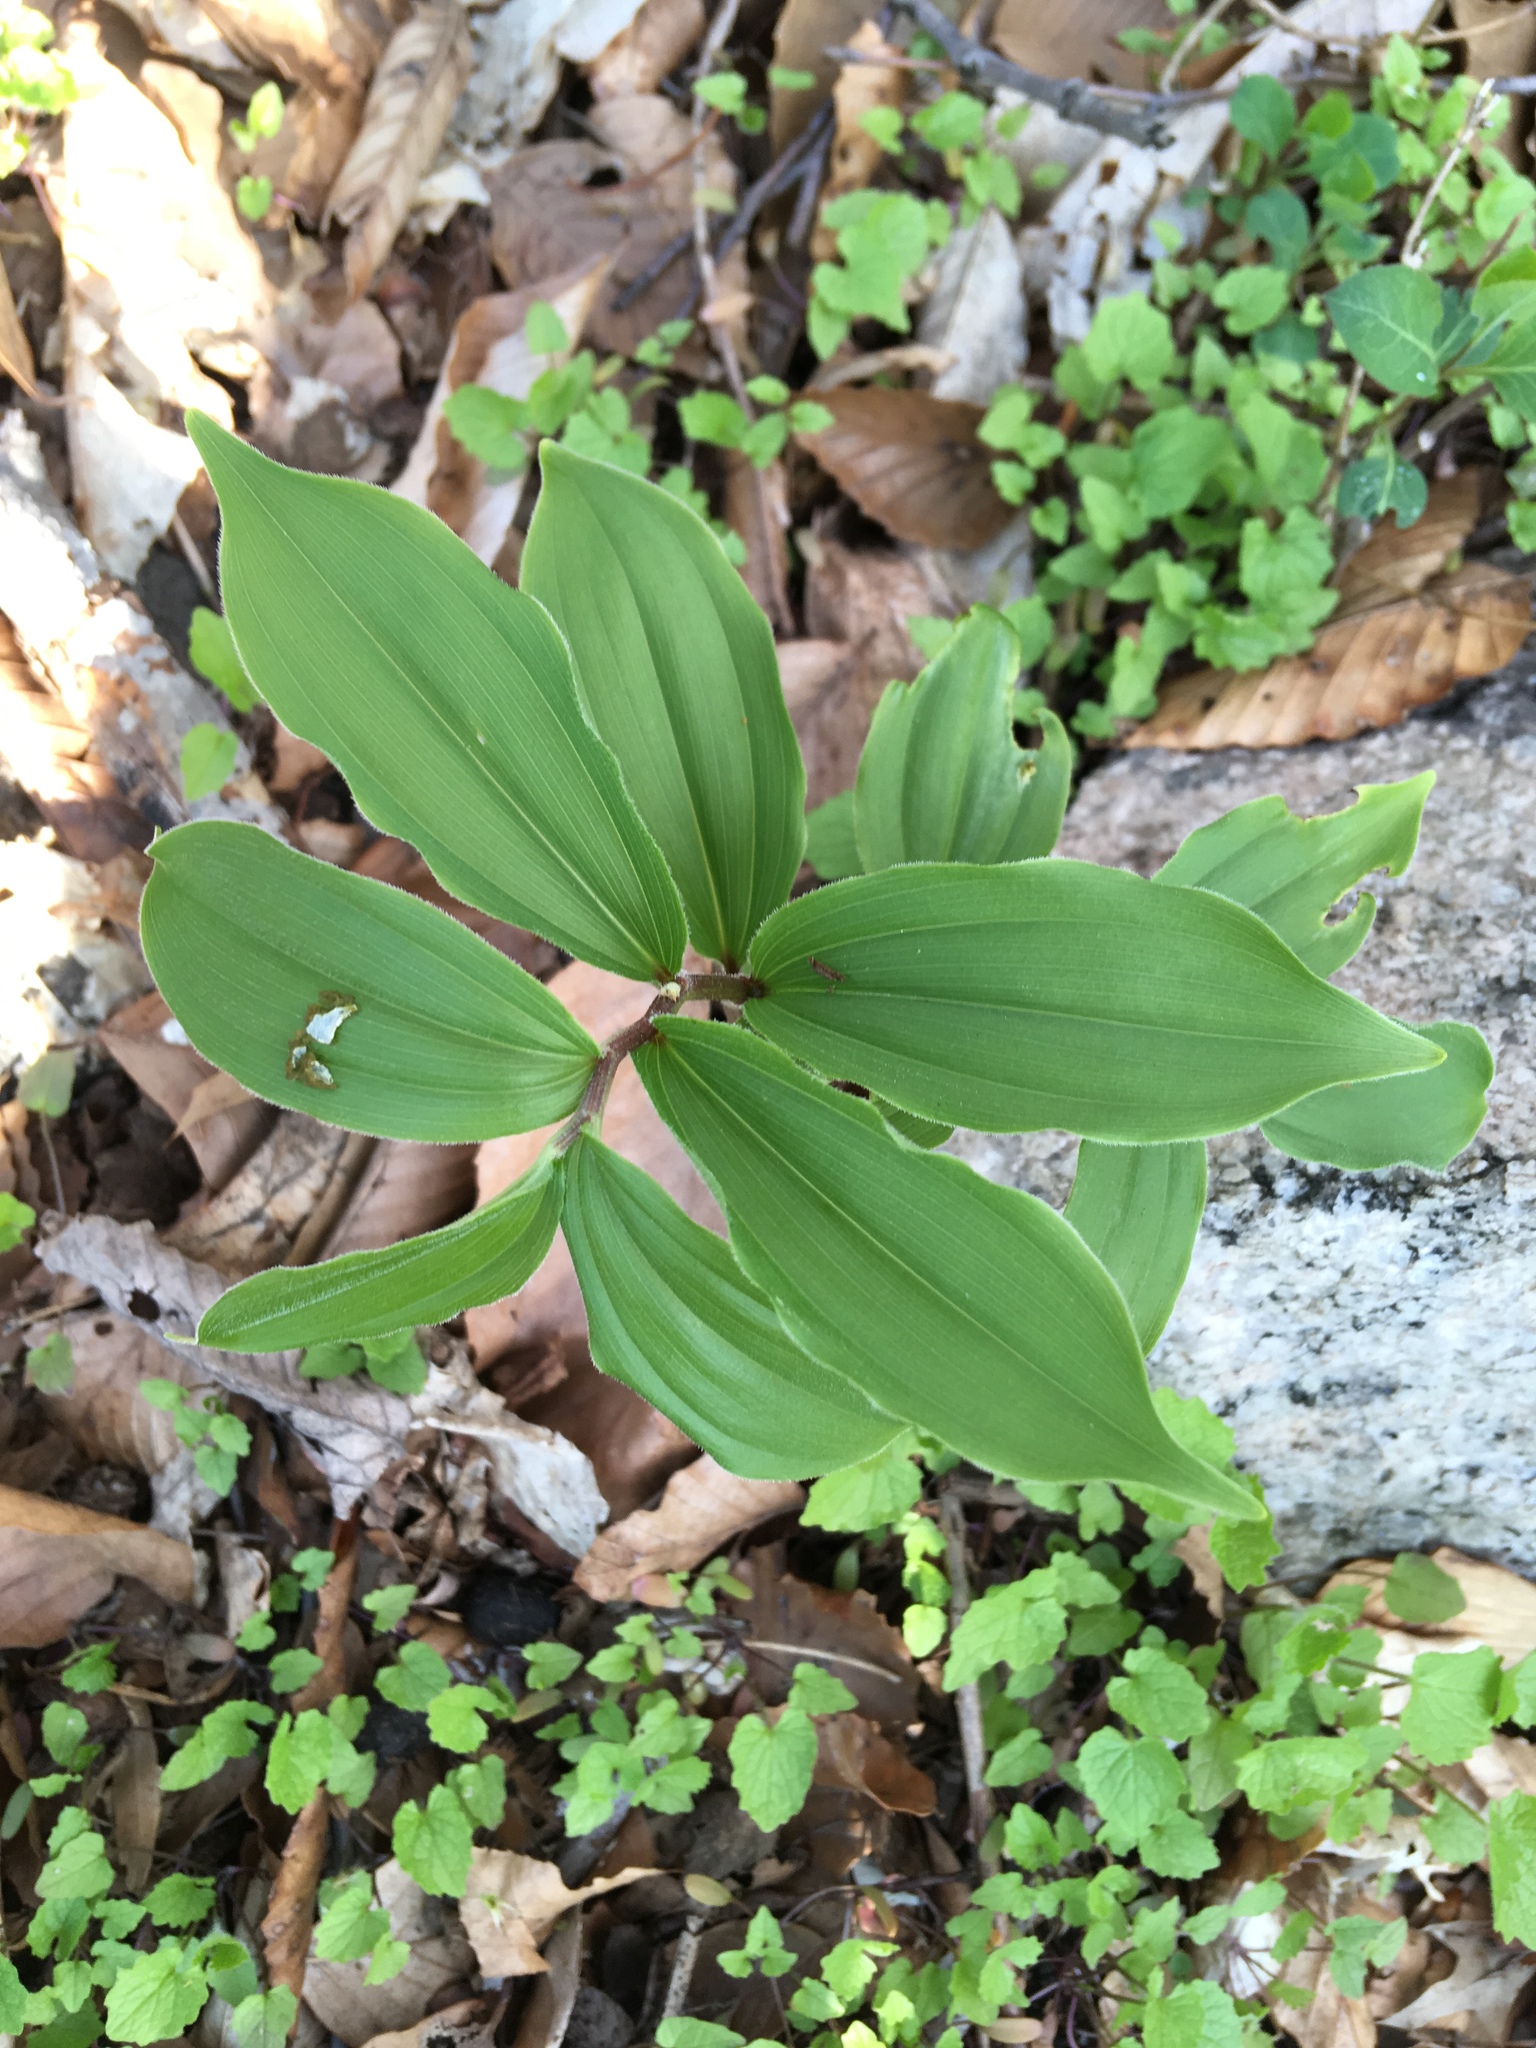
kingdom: Plantae
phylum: Tracheophyta
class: Liliopsida
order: Asparagales
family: Asparagaceae
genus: Maianthemum
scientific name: Maianthemum racemosum
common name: False spikenard
